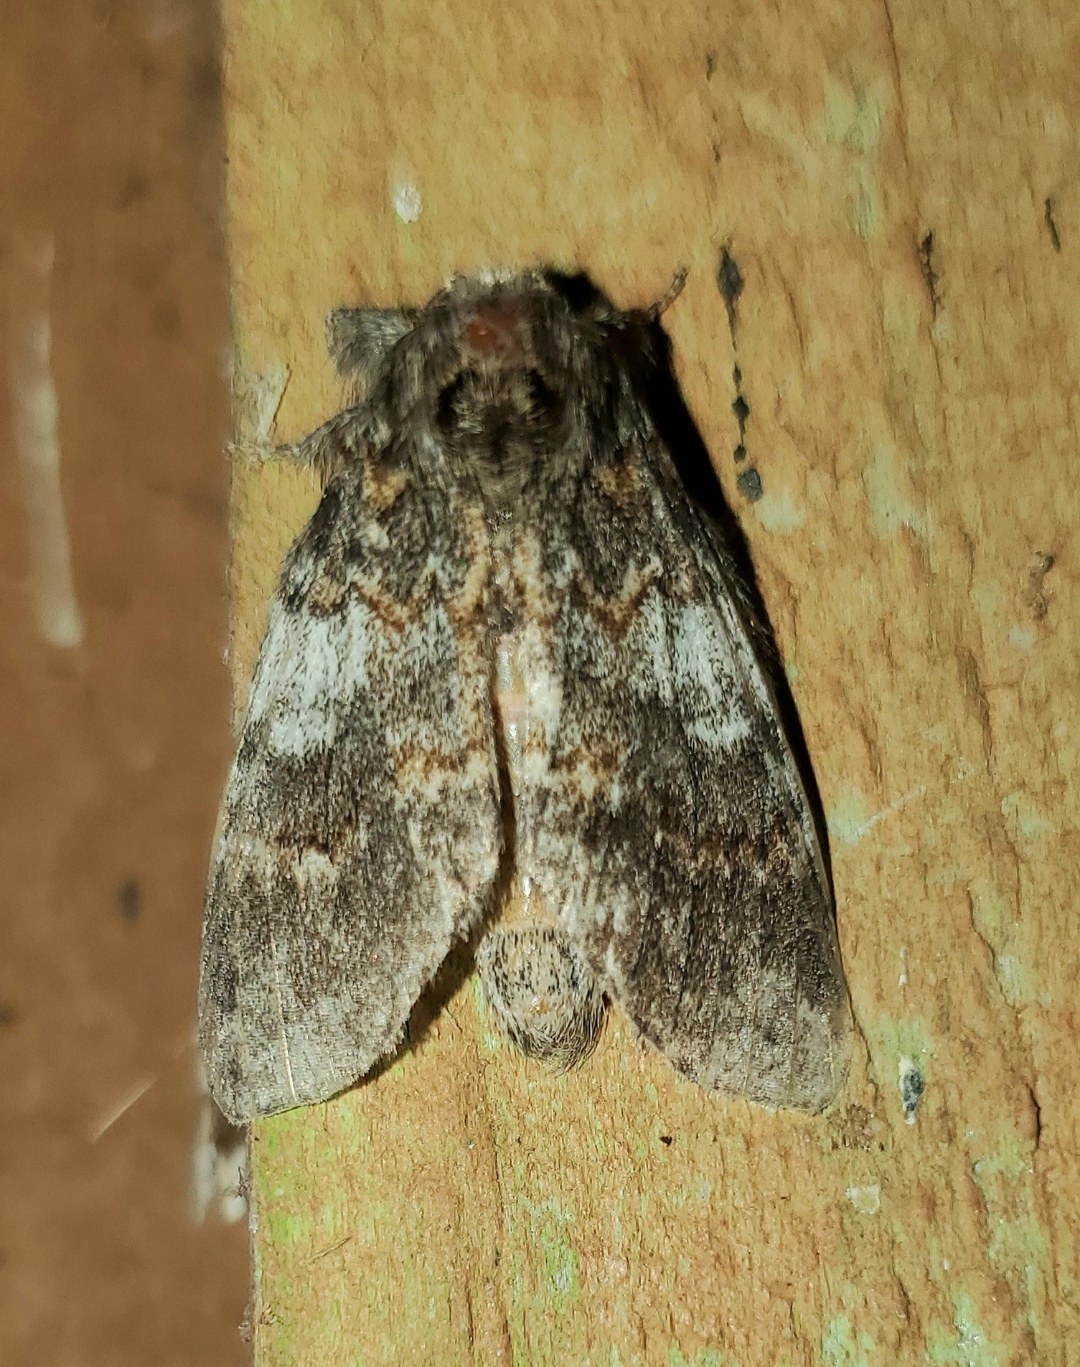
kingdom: Animalia
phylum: Arthropoda
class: Insecta
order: Lepidoptera
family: Notodontidae
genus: Peridea
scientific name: Peridea angulosa
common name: Angulose prominent
